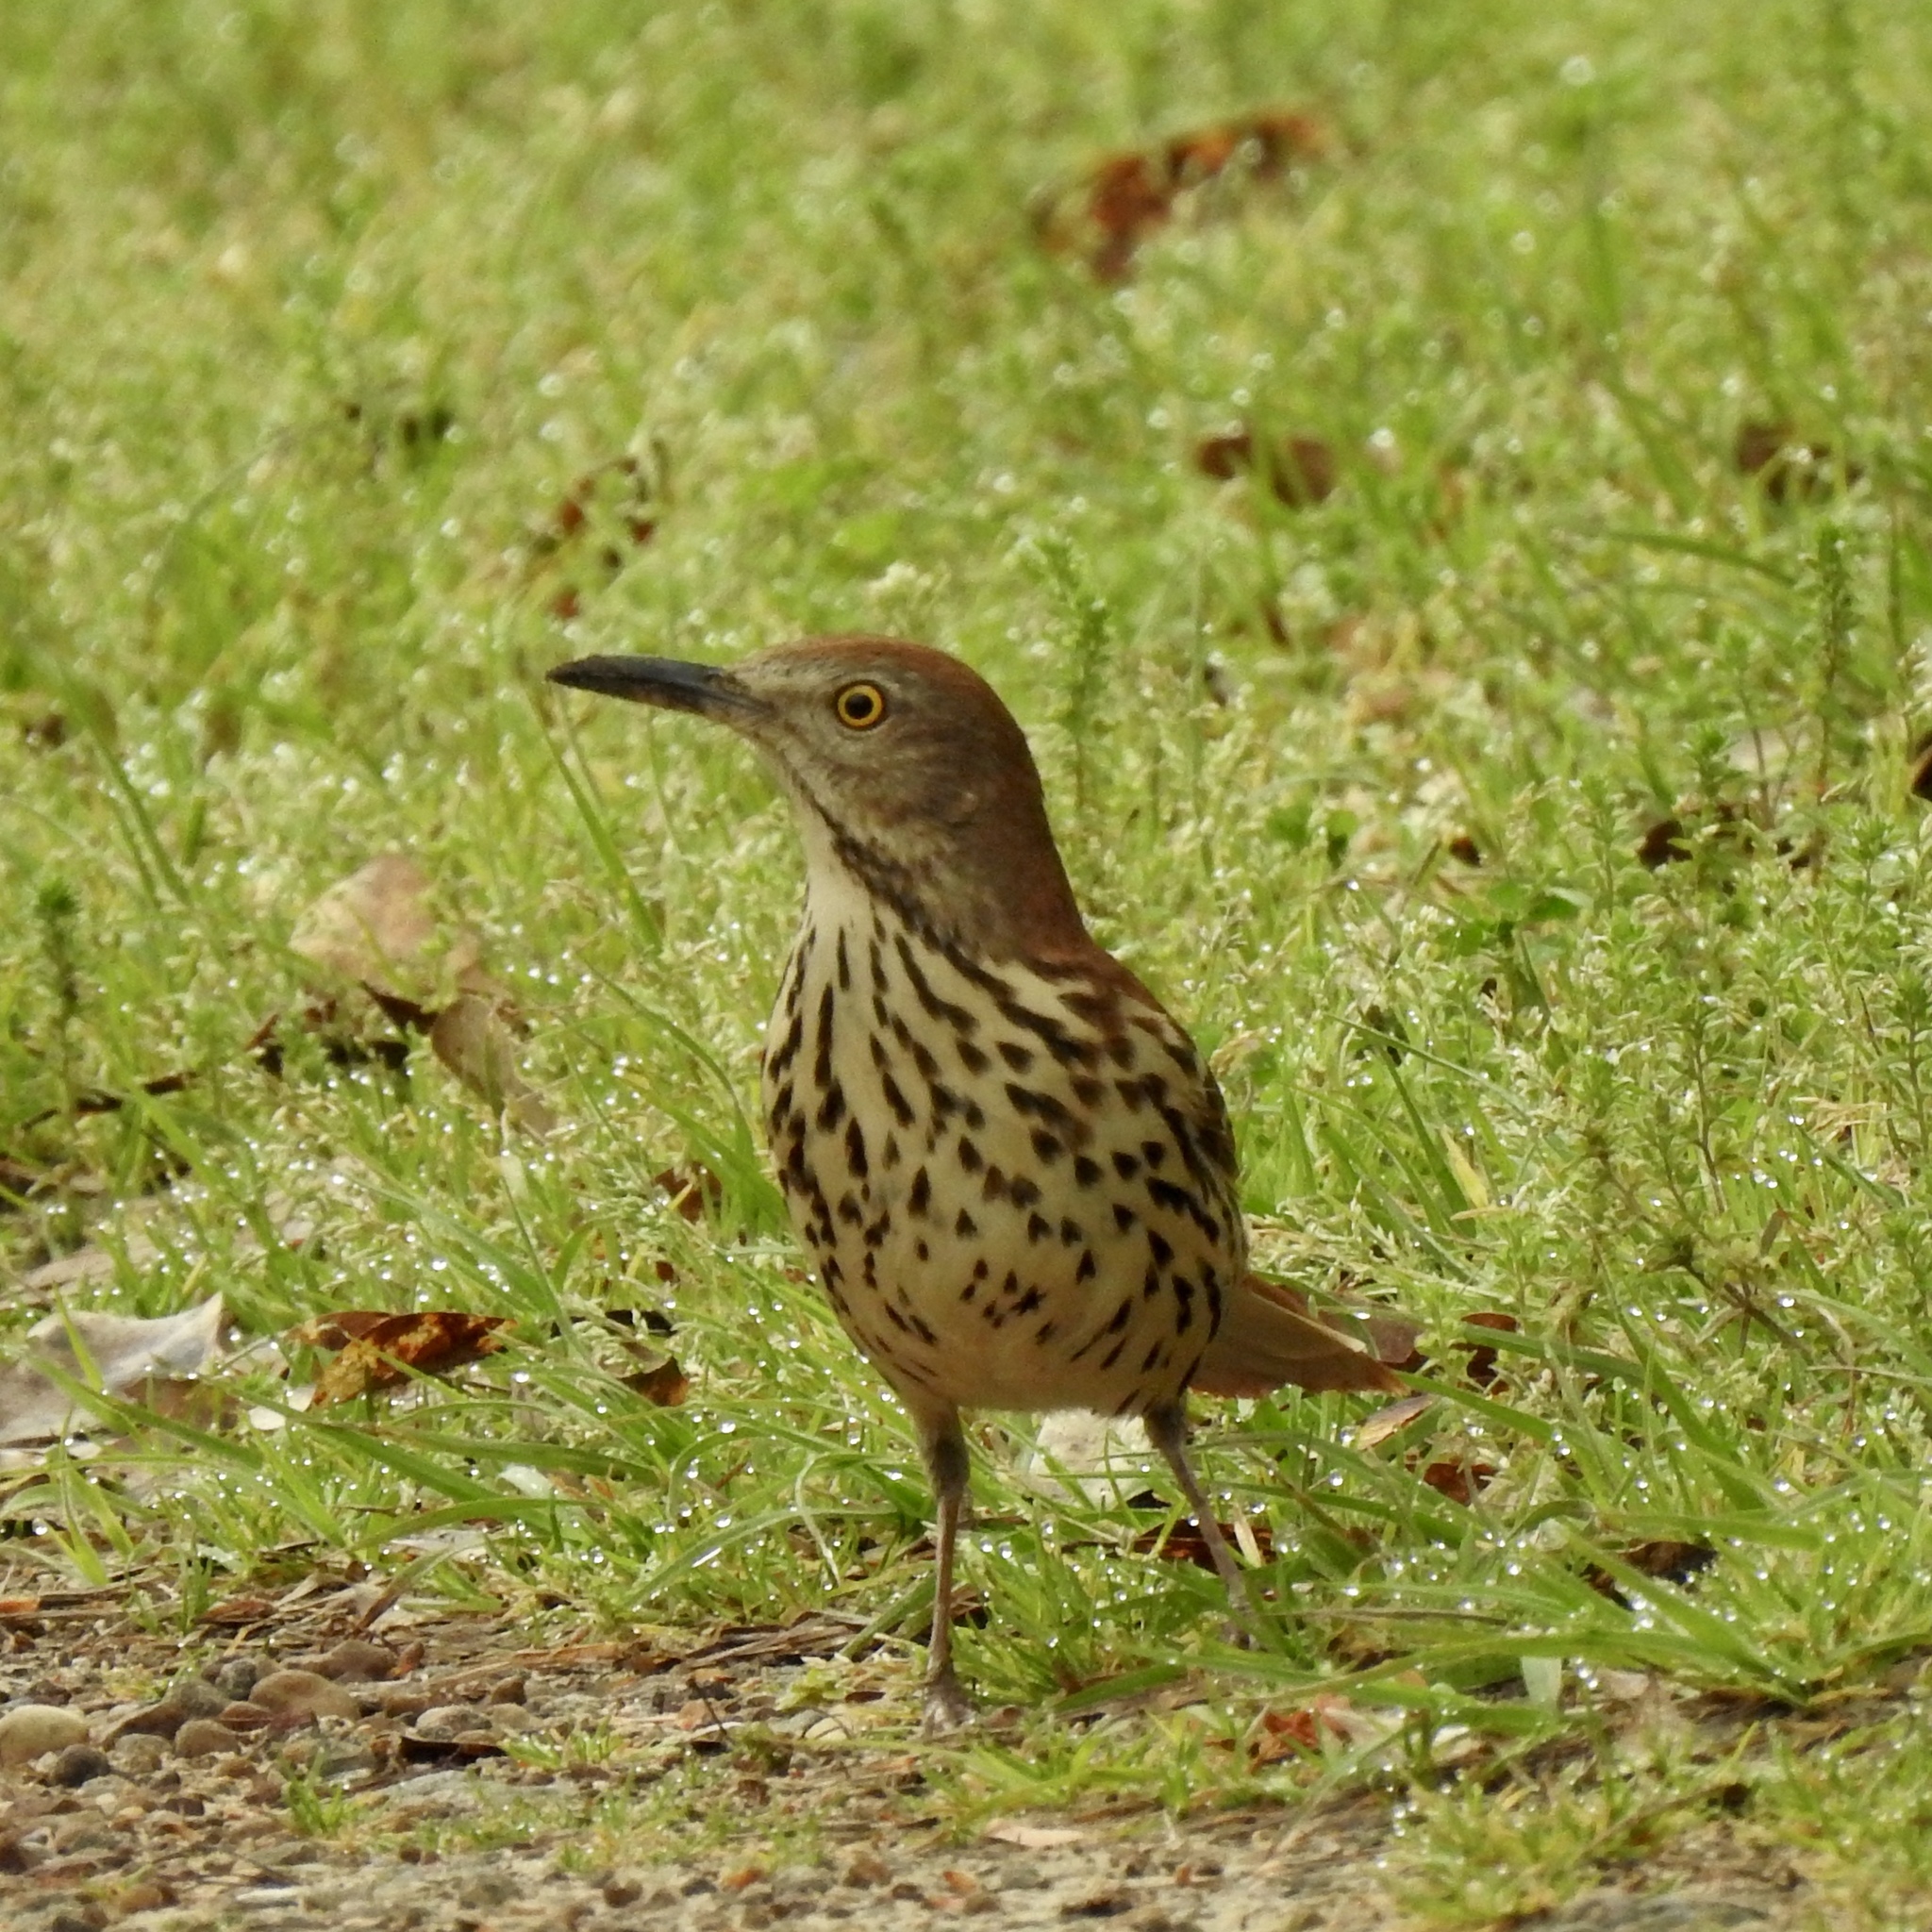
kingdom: Animalia
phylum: Chordata
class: Aves
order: Passeriformes
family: Mimidae
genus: Toxostoma
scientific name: Toxostoma rufum
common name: Brown thrasher
